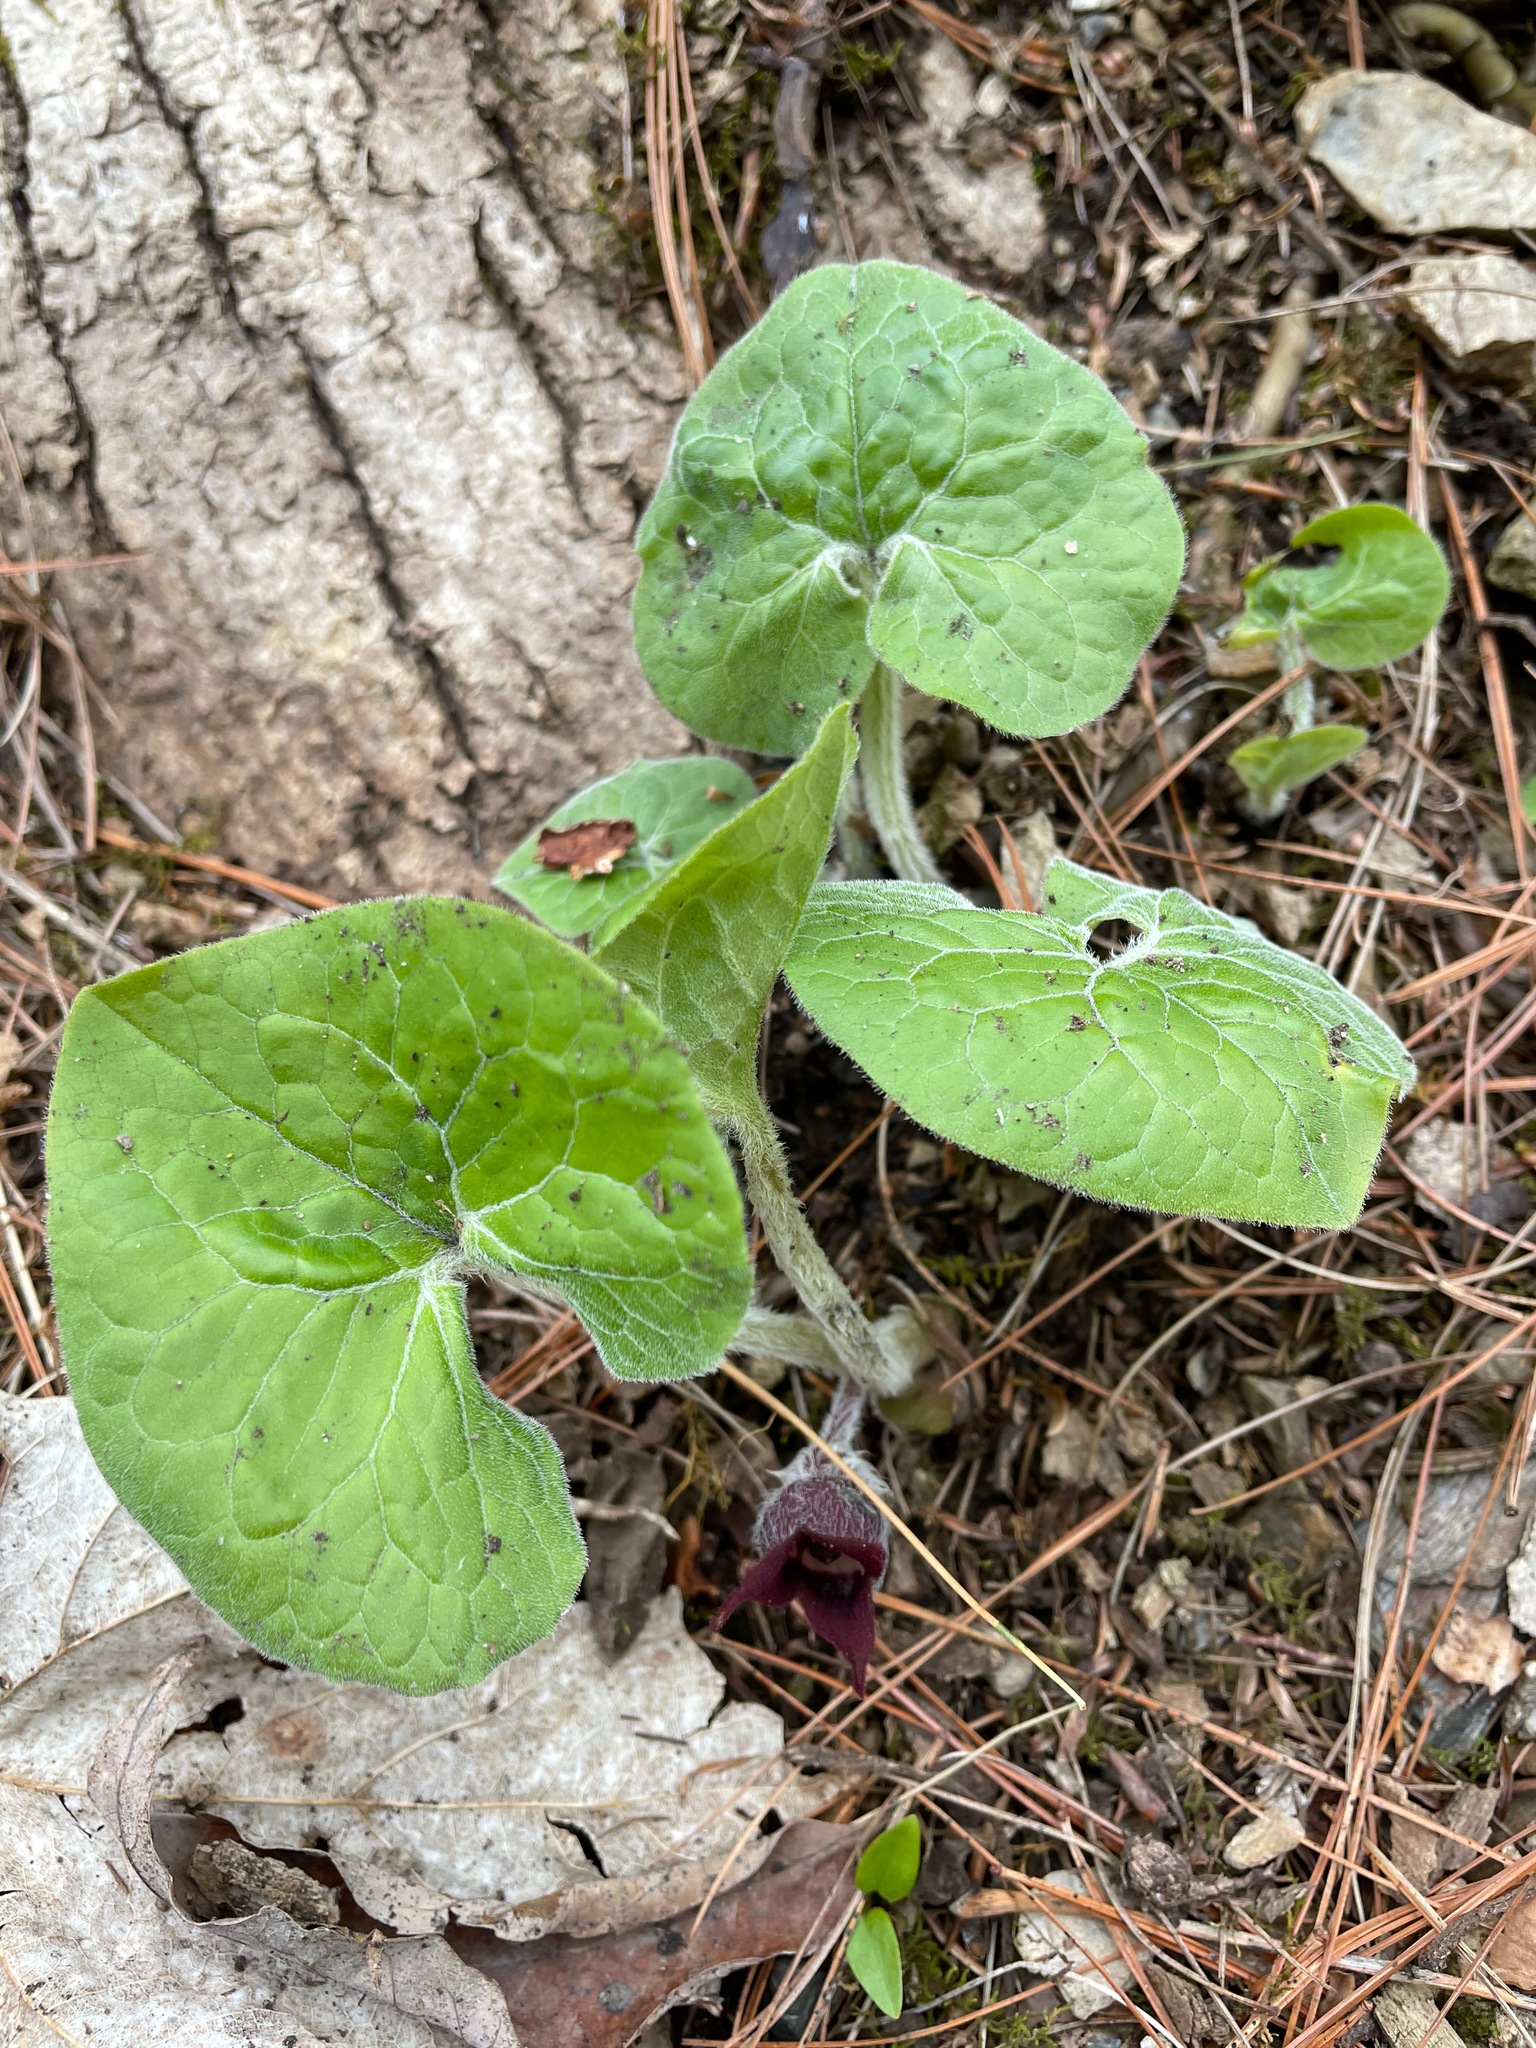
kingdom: Plantae
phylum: Tracheophyta
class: Magnoliopsida
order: Piperales
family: Aristolochiaceae
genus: Asarum
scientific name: Asarum canadense
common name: Wild ginger
